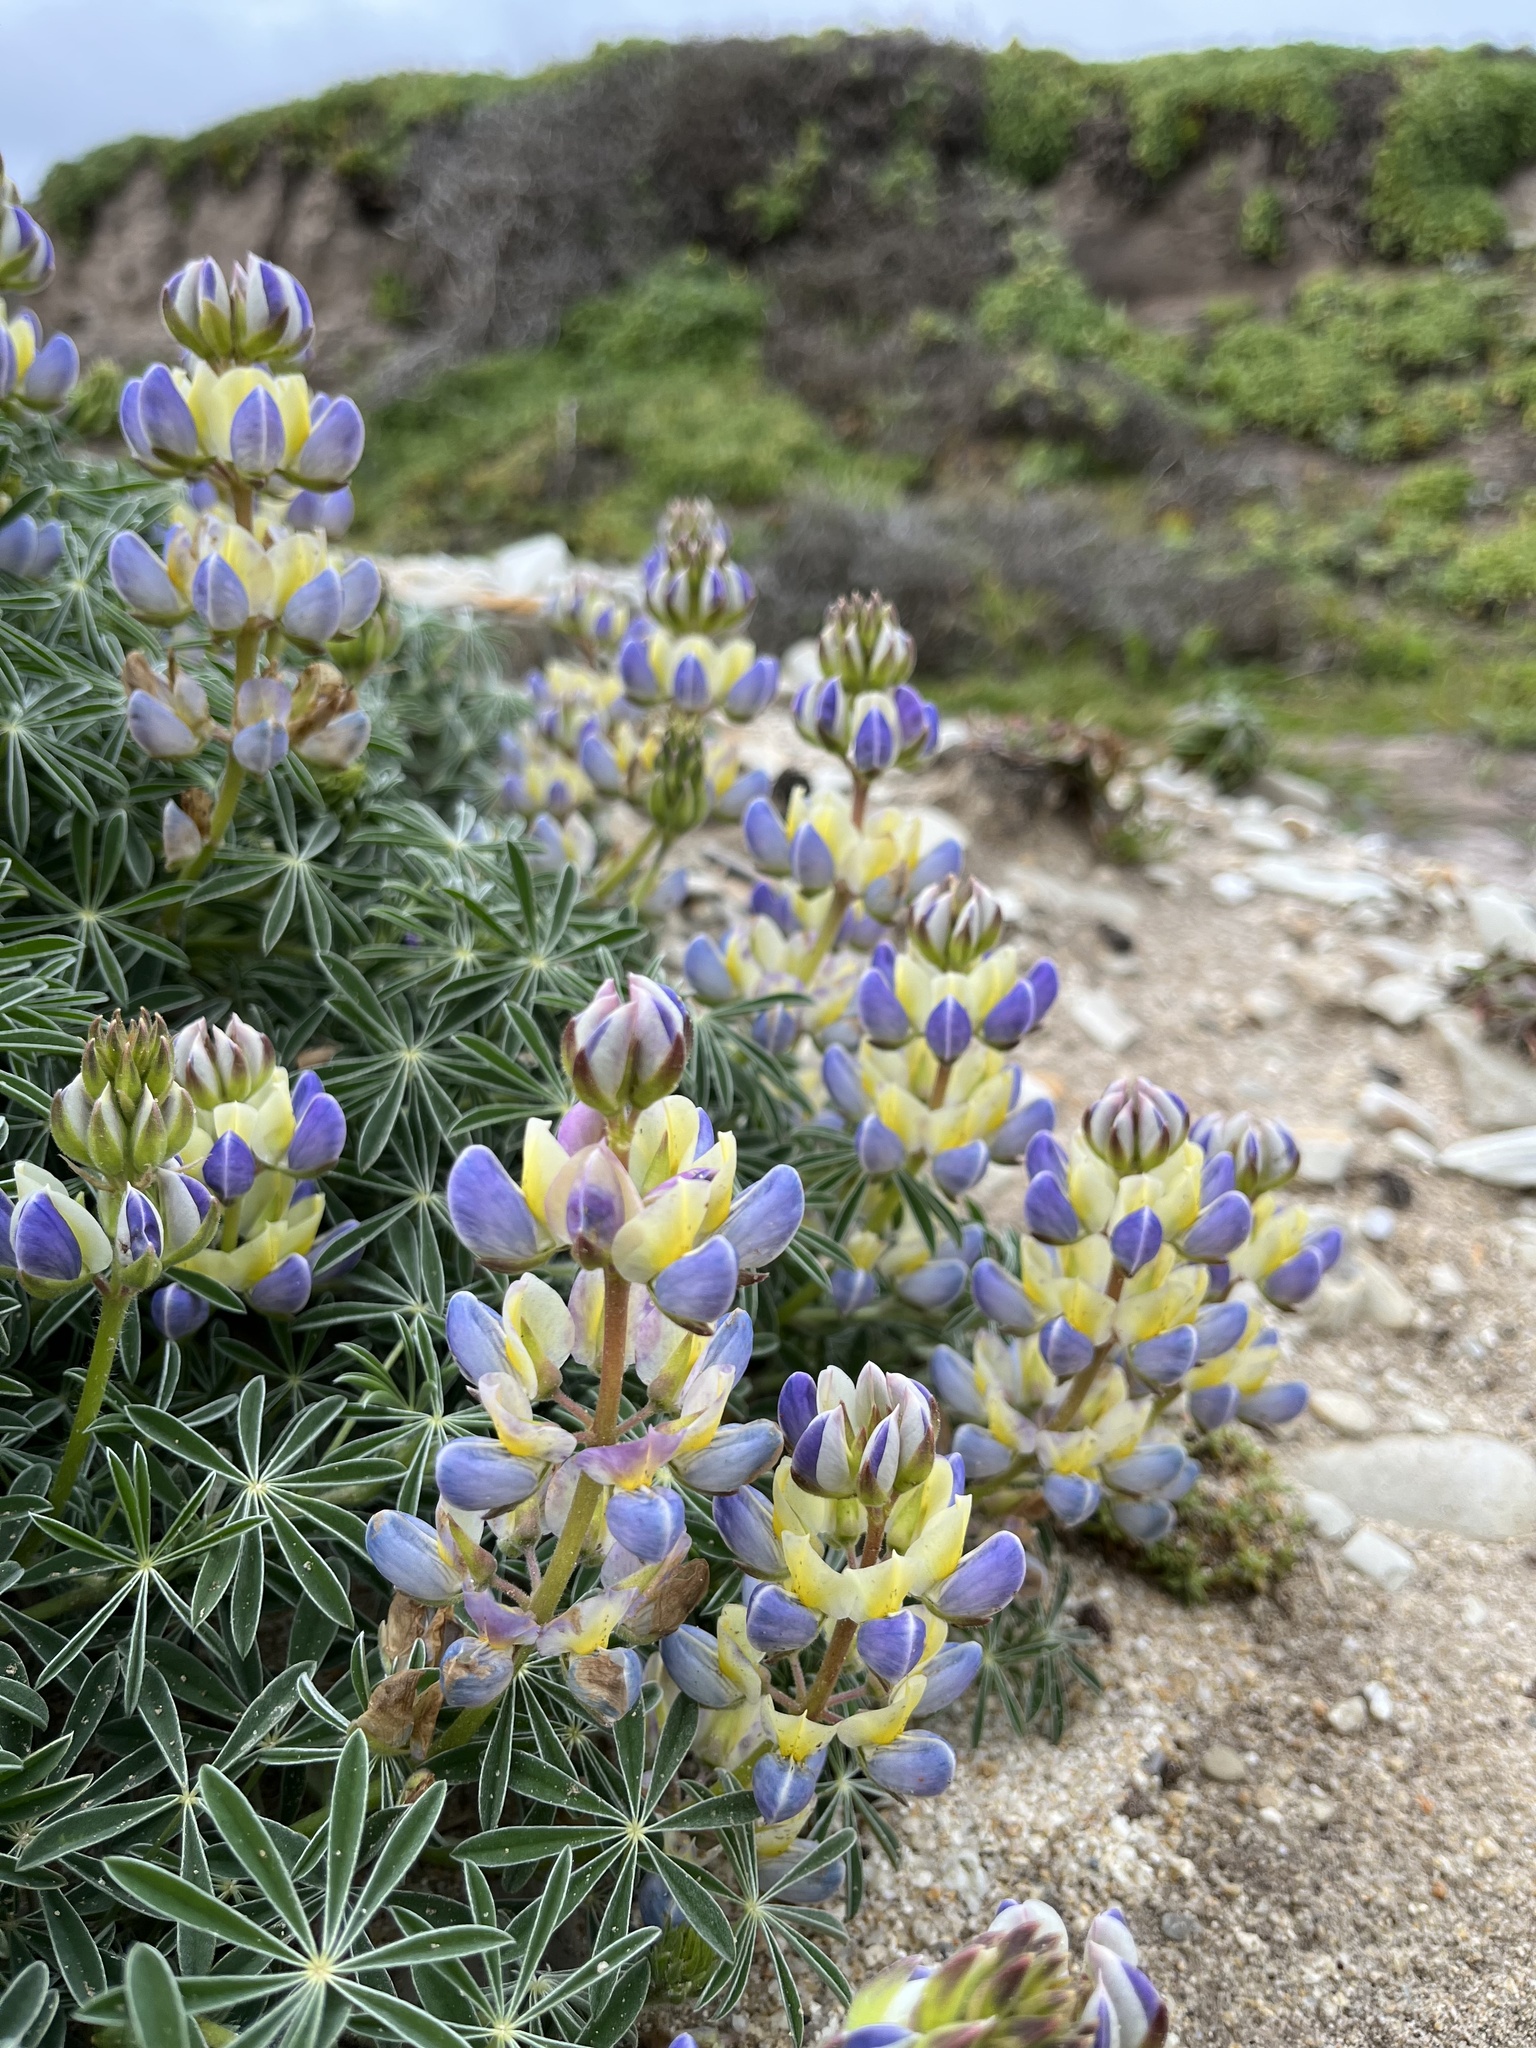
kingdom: Plantae
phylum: Tracheophyta
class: Magnoliopsida
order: Fabales
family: Fabaceae
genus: Lupinus
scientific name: Lupinus variicolor
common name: Lindley's varied lupine
